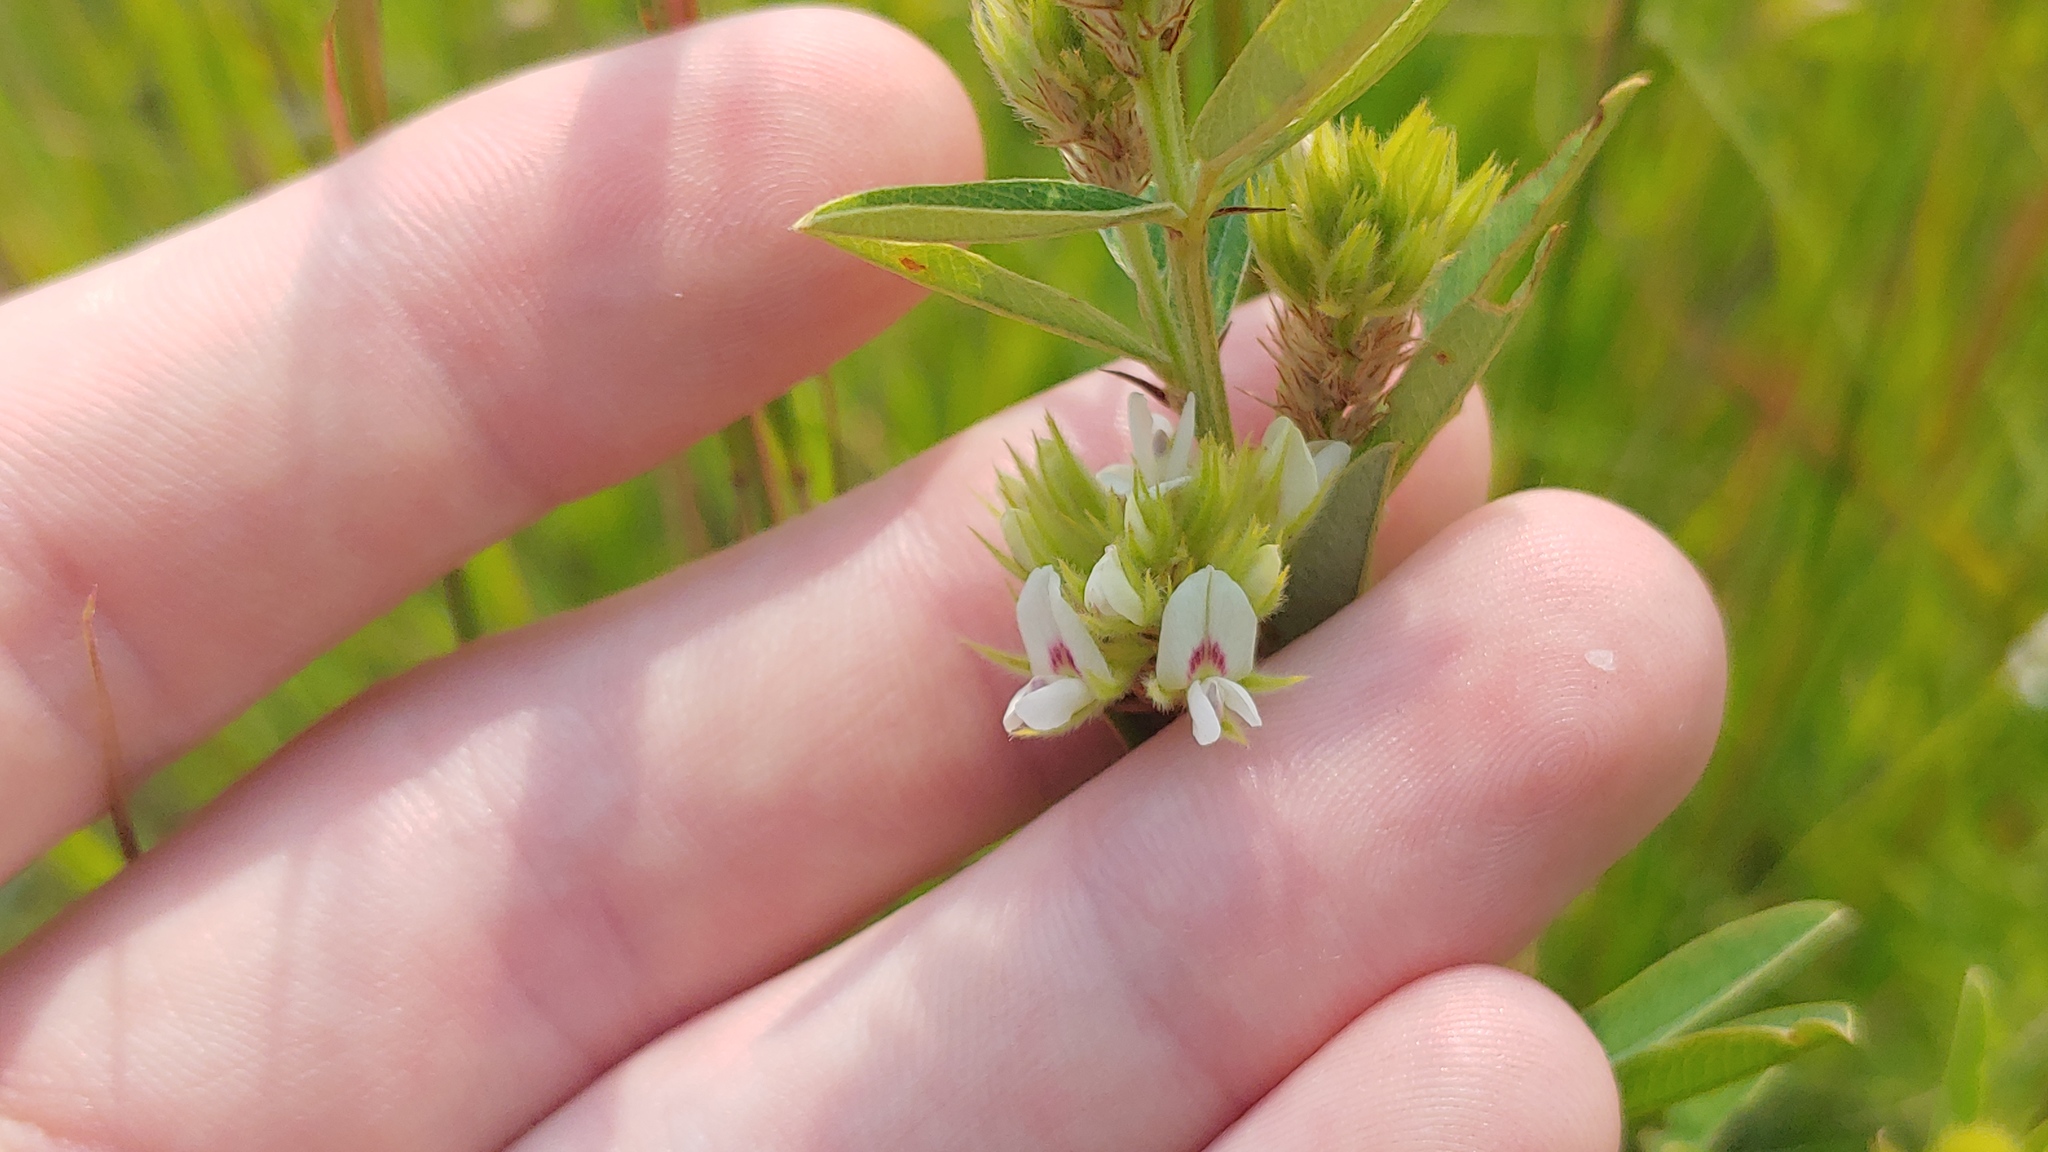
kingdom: Plantae
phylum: Tracheophyta
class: Magnoliopsida
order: Fabales
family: Fabaceae
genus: Lespedeza
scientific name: Lespedeza capitata
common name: Dusty clover
